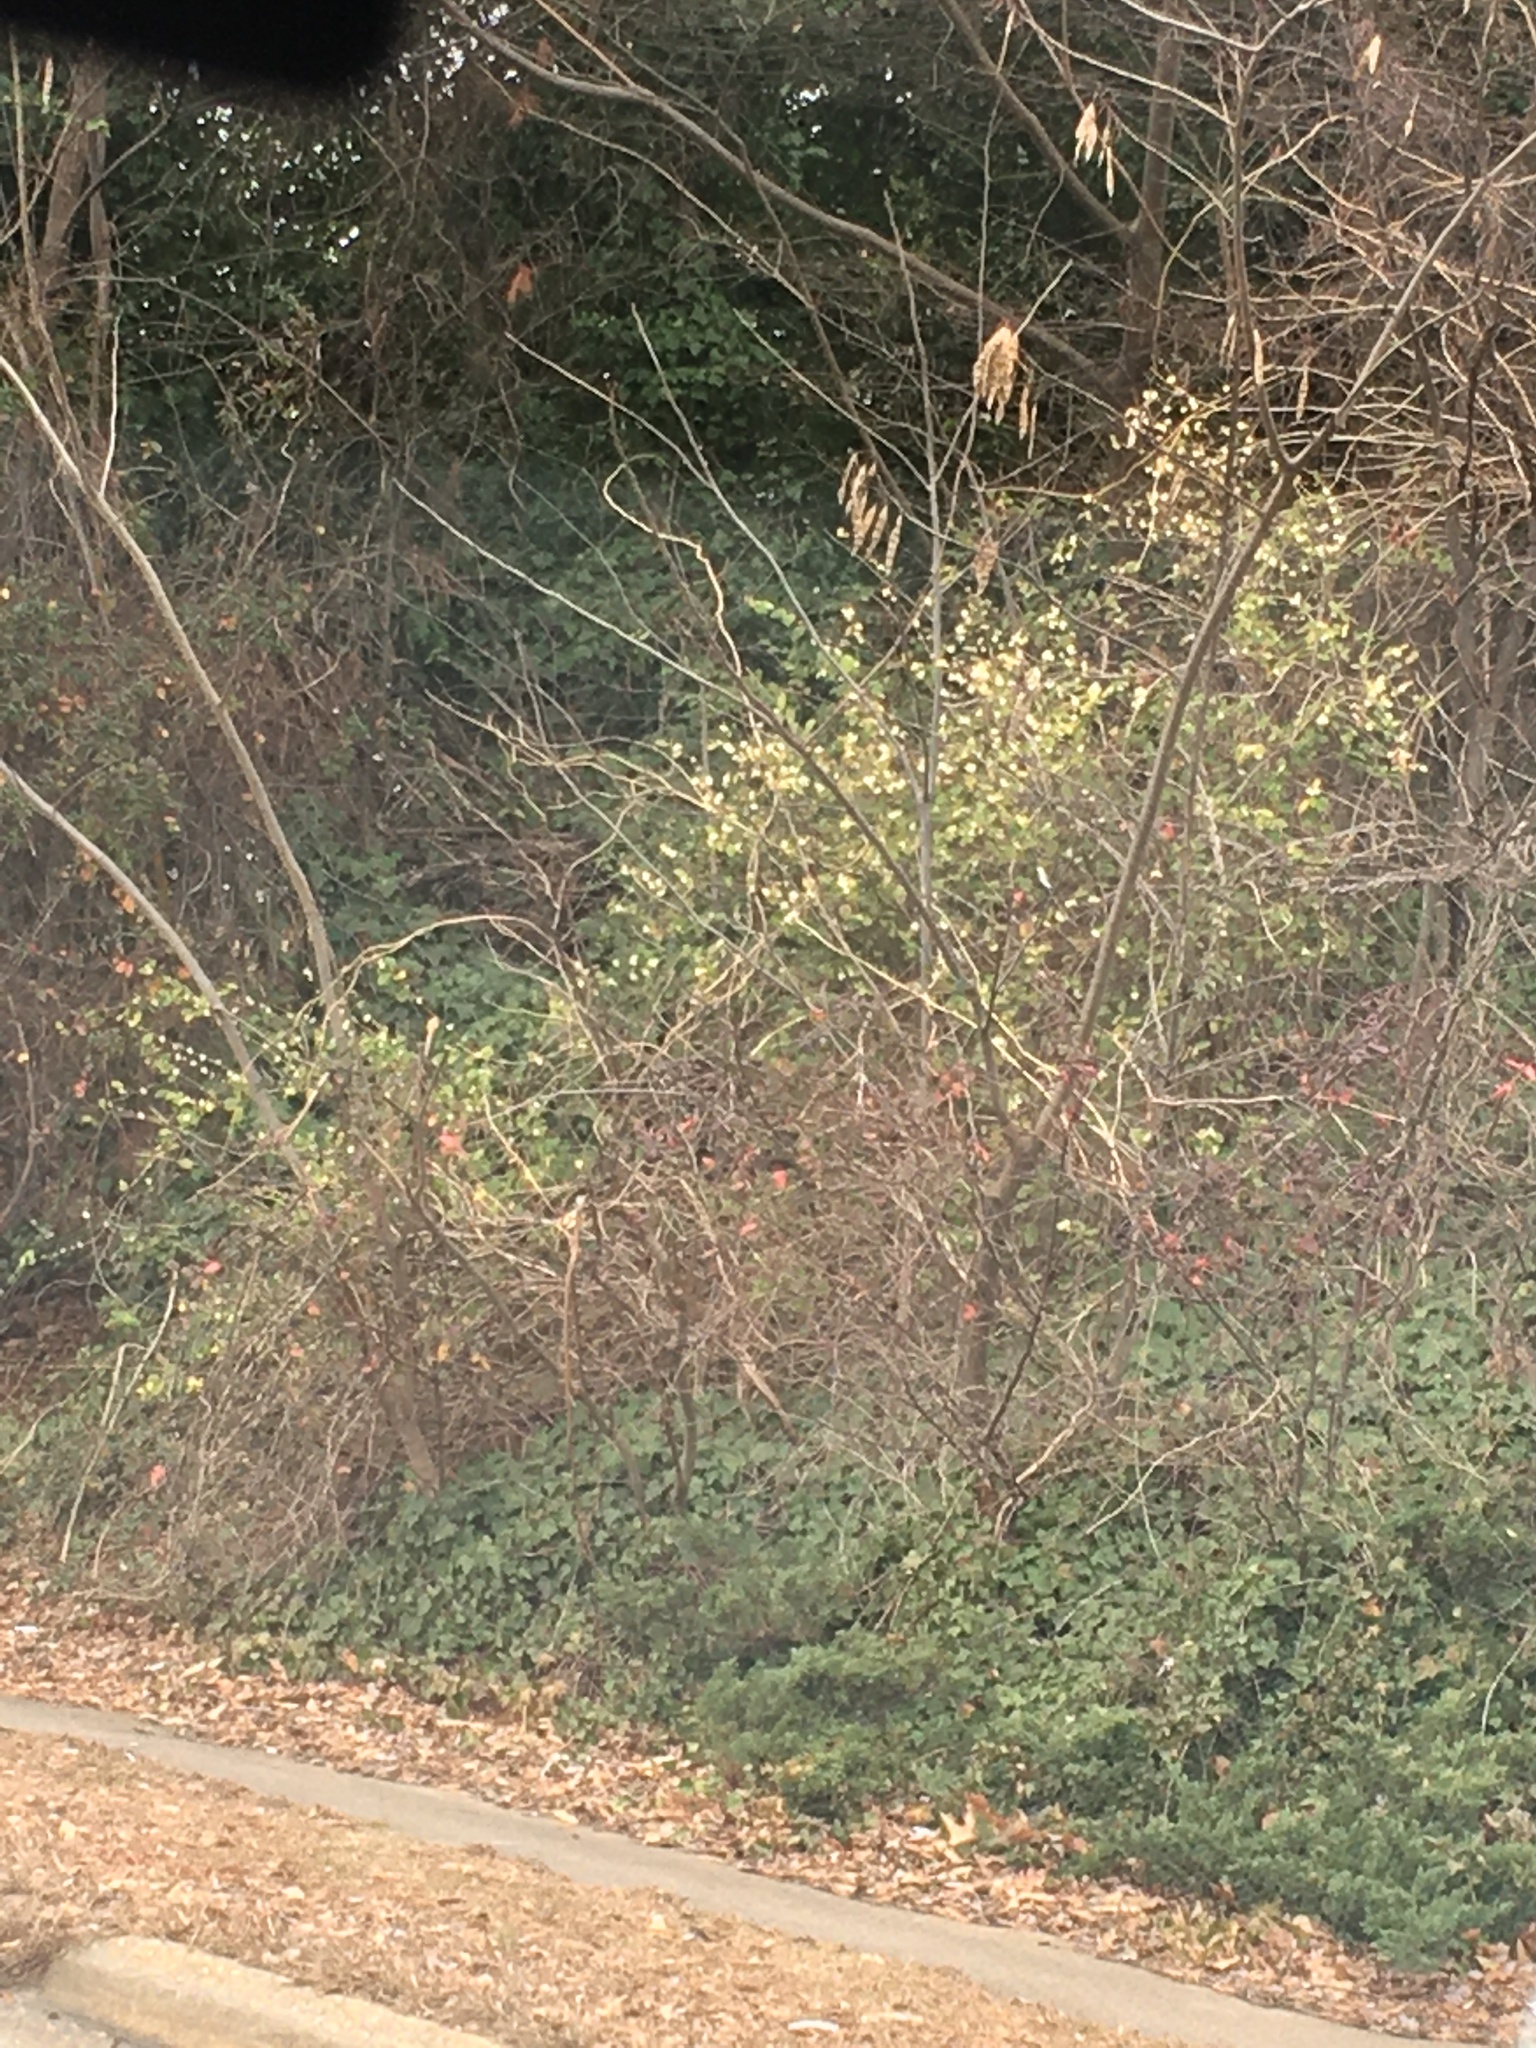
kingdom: Plantae
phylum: Tracheophyta
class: Magnoliopsida
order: Dipsacales
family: Caprifoliaceae
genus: Lonicera
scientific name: Lonicera fragrantissima
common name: Fragrant honeysuckle
